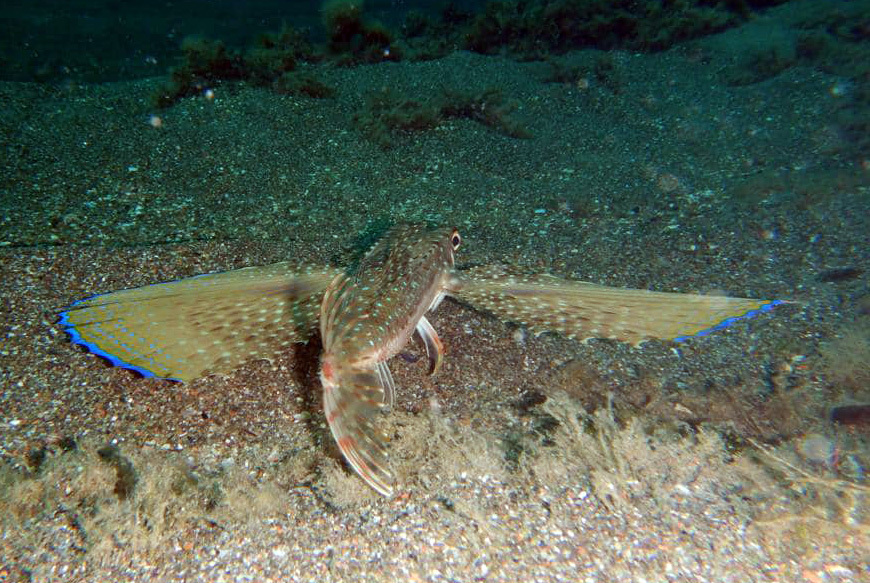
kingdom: Animalia
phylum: Chordata
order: Scorpaeniformes
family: Dactylopteridae
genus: Dactylopterus
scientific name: Dactylopterus volitans
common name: Flying gurnard
